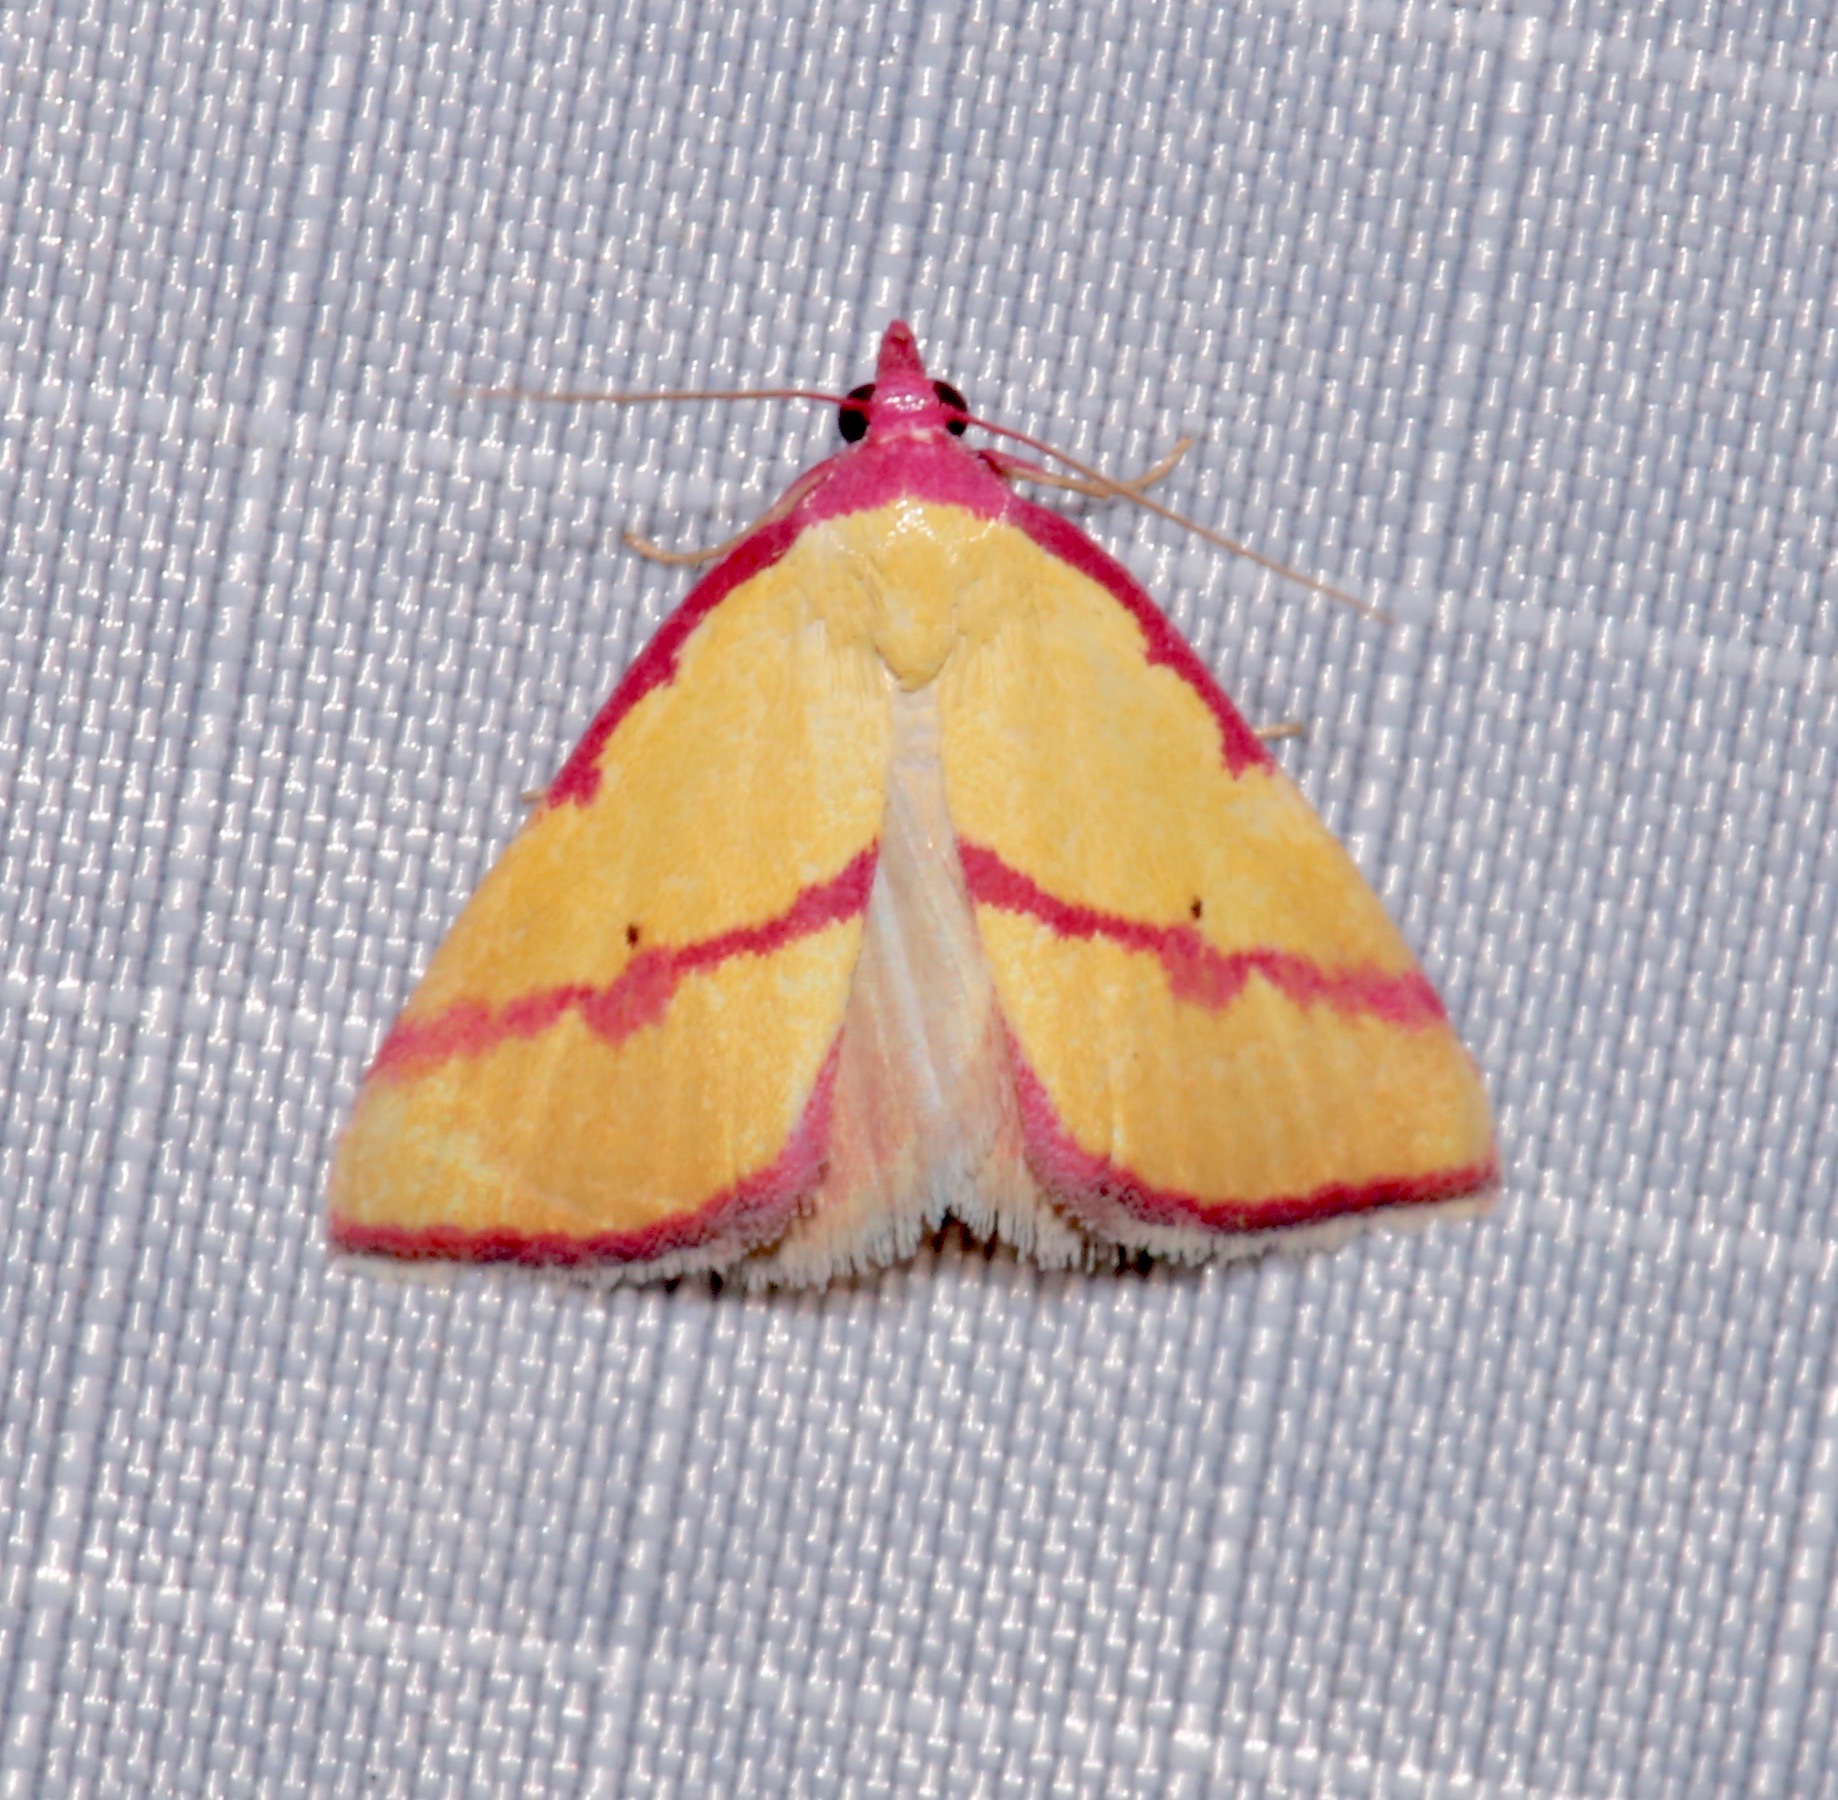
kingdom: Animalia
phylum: Arthropoda
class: Insecta
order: Lepidoptera
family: Erebidae
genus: Phytometra
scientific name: Phytometra ernestinana
